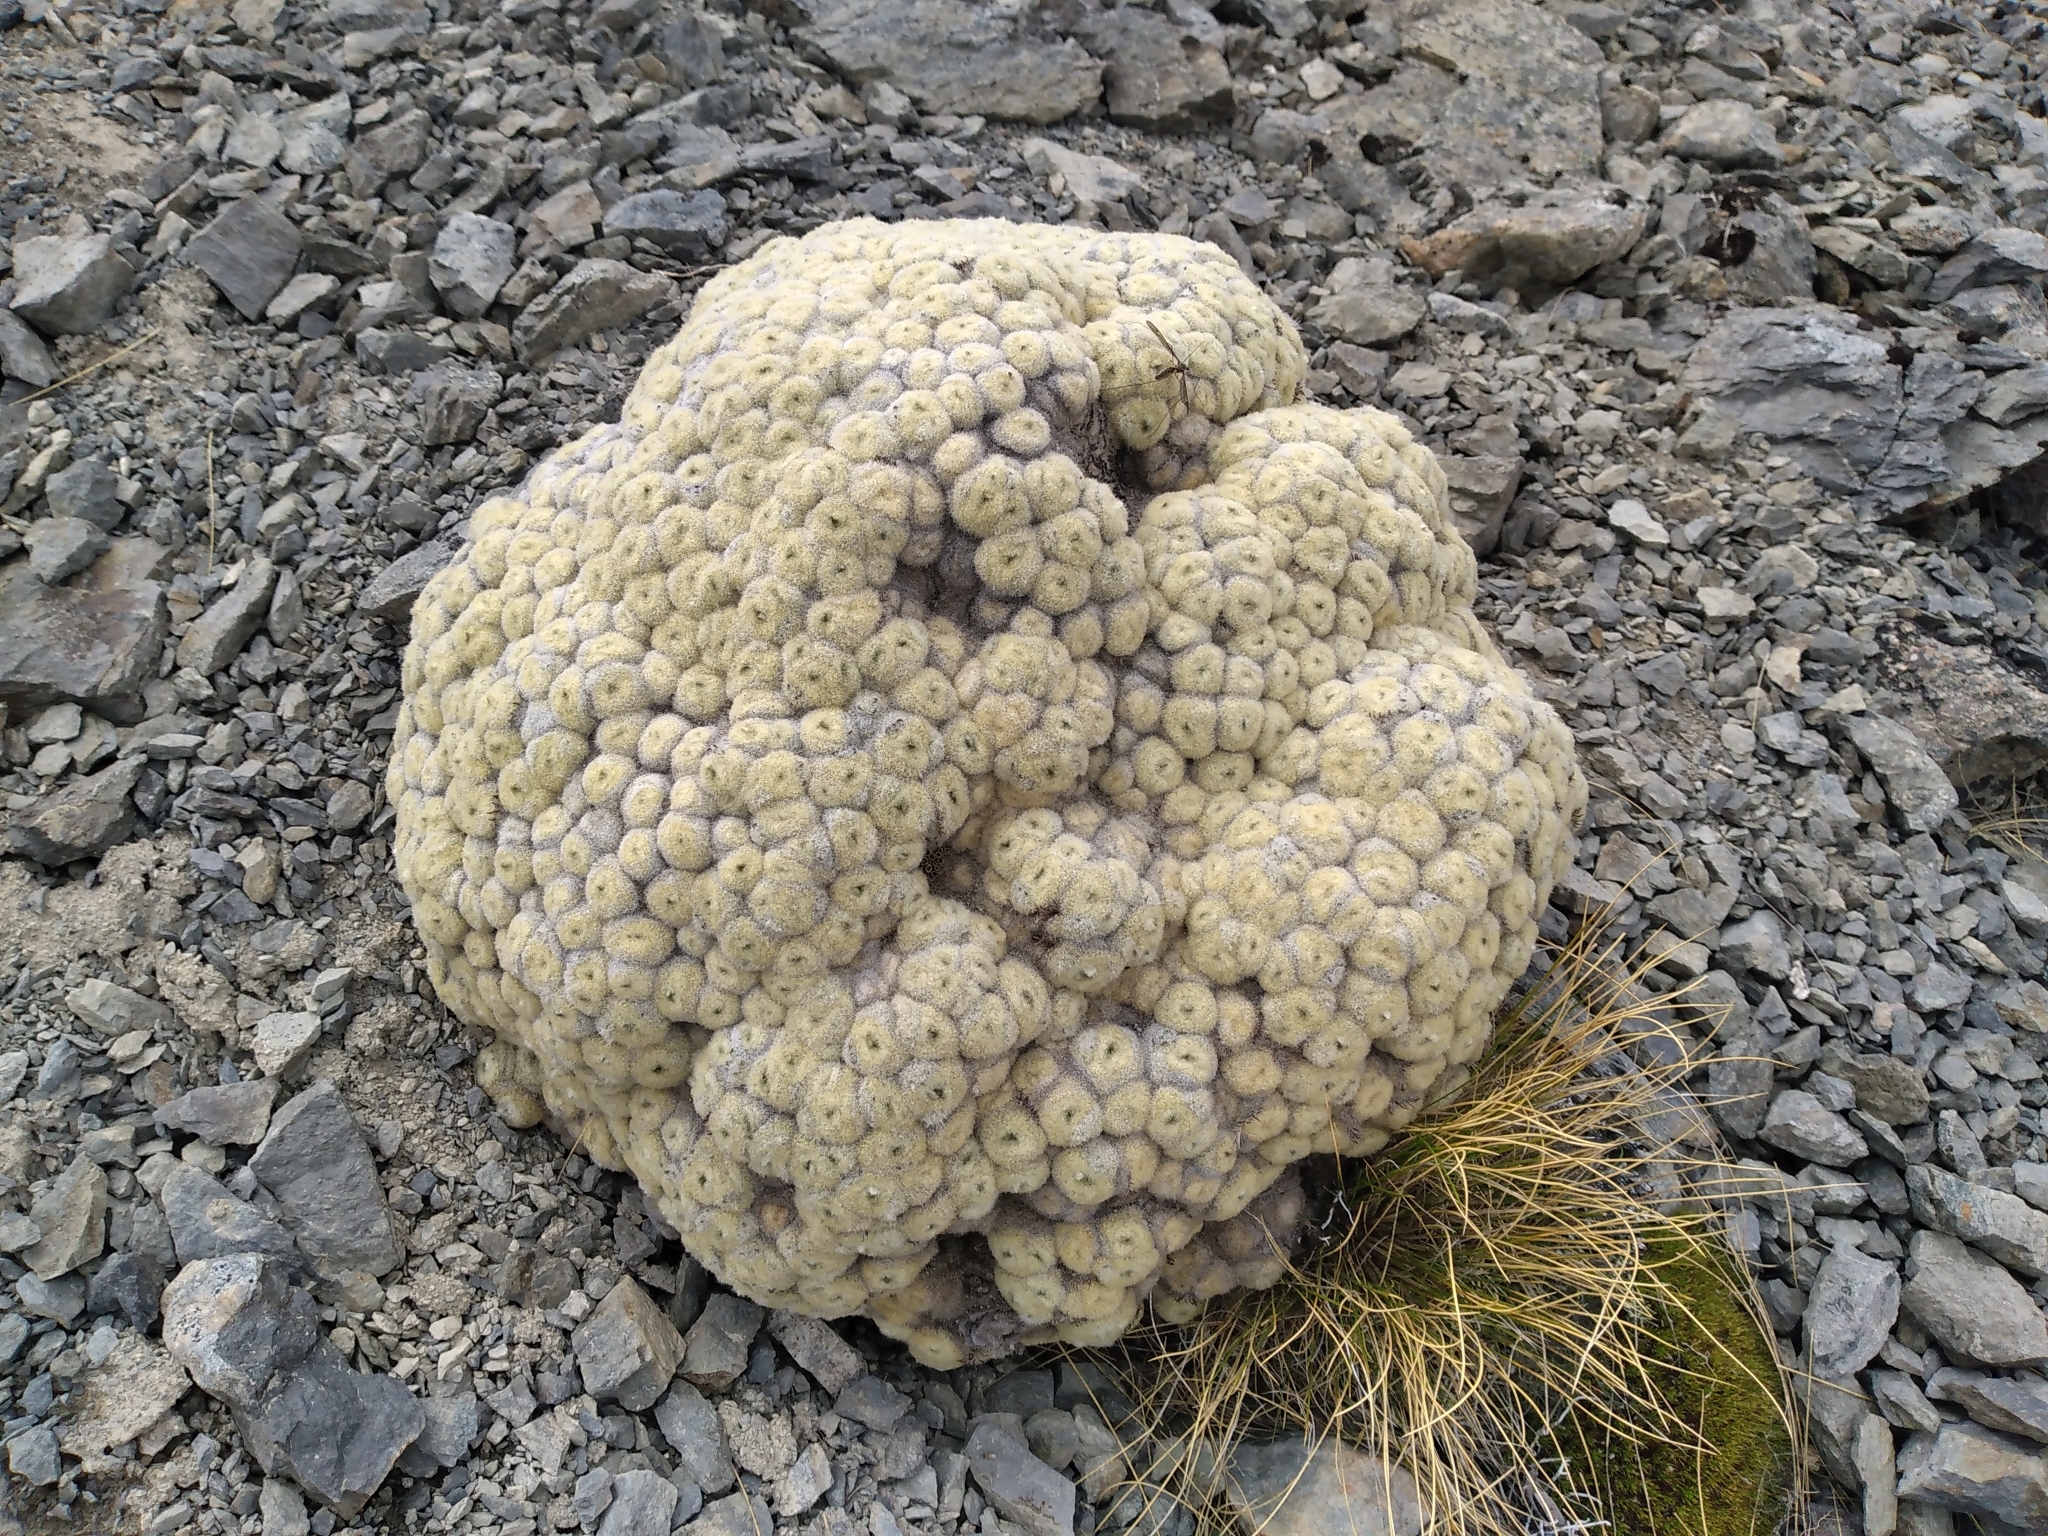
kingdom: Plantae
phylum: Tracheophyta
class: Magnoliopsida
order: Asterales
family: Asteraceae
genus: Haastia
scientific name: Haastia pulvinaris
